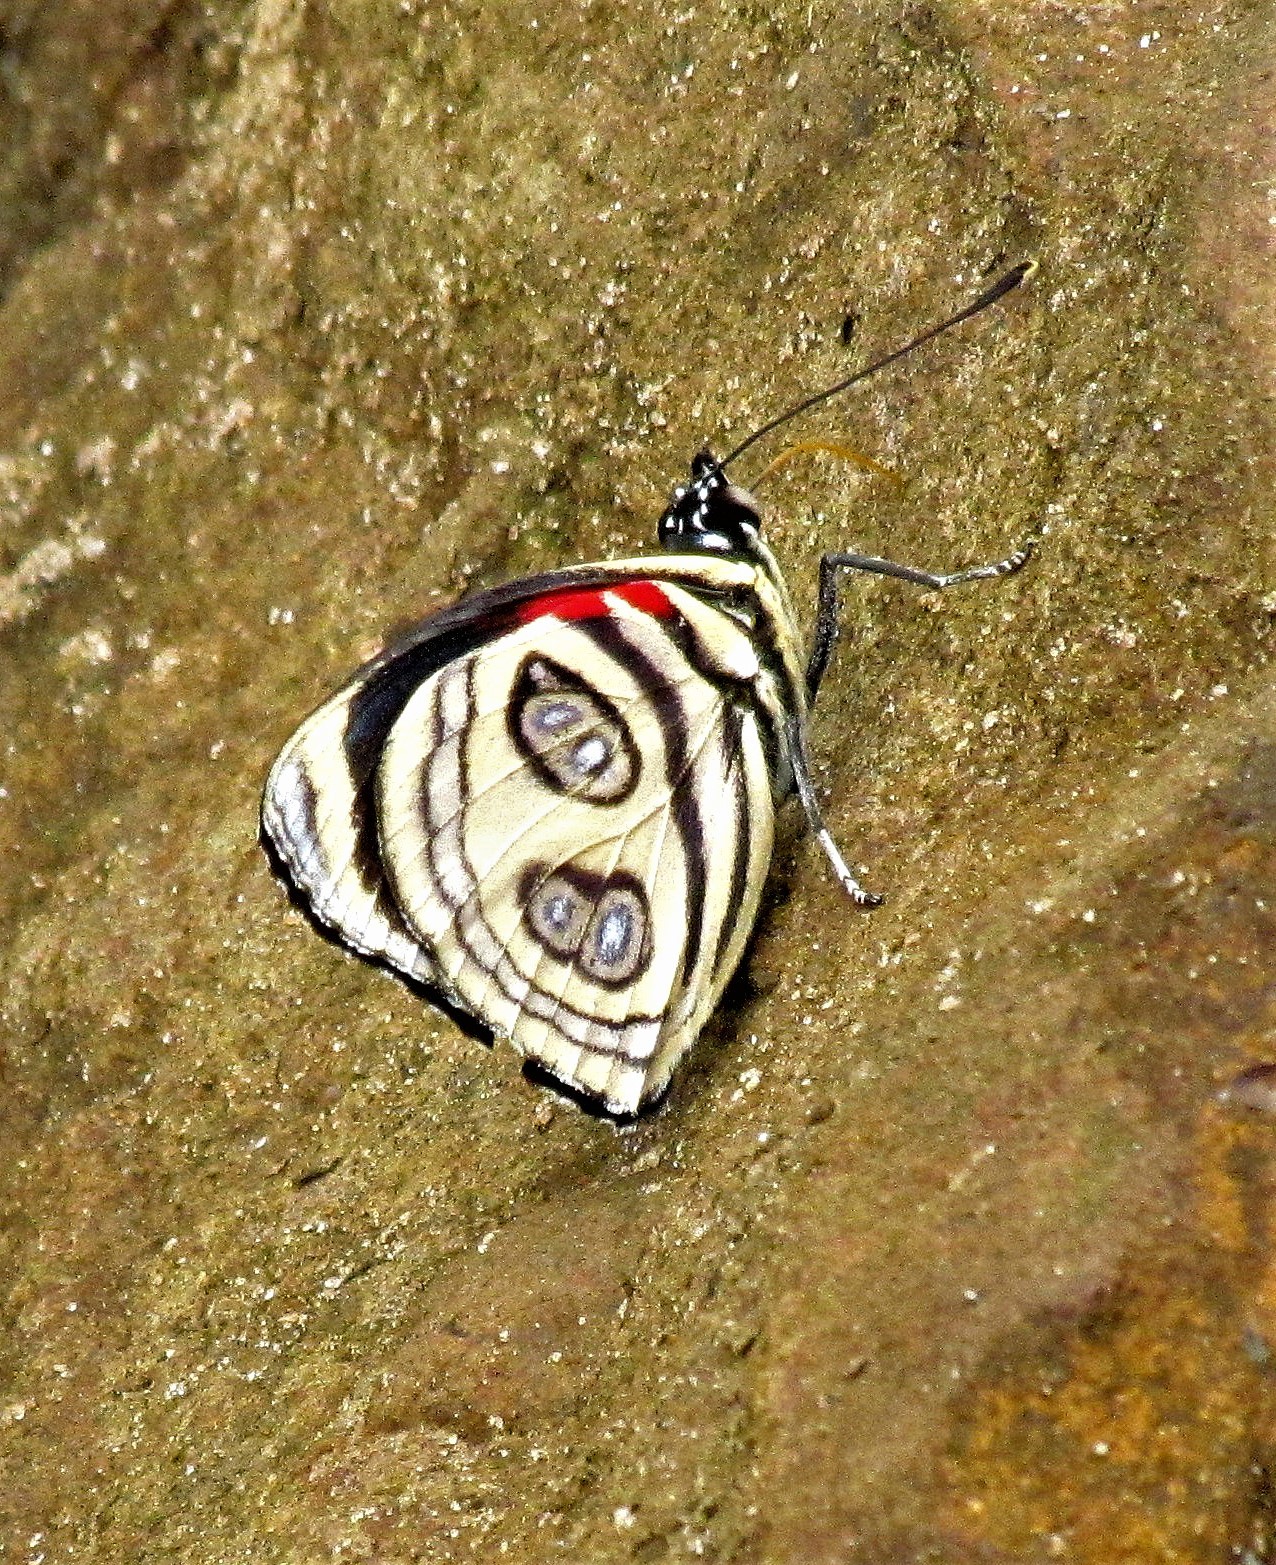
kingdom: Animalia
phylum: Arthropoda
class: Insecta
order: Lepidoptera
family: Nymphalidae
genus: Catagramma
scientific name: Catagramma pygas
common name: Godart's numberwing
